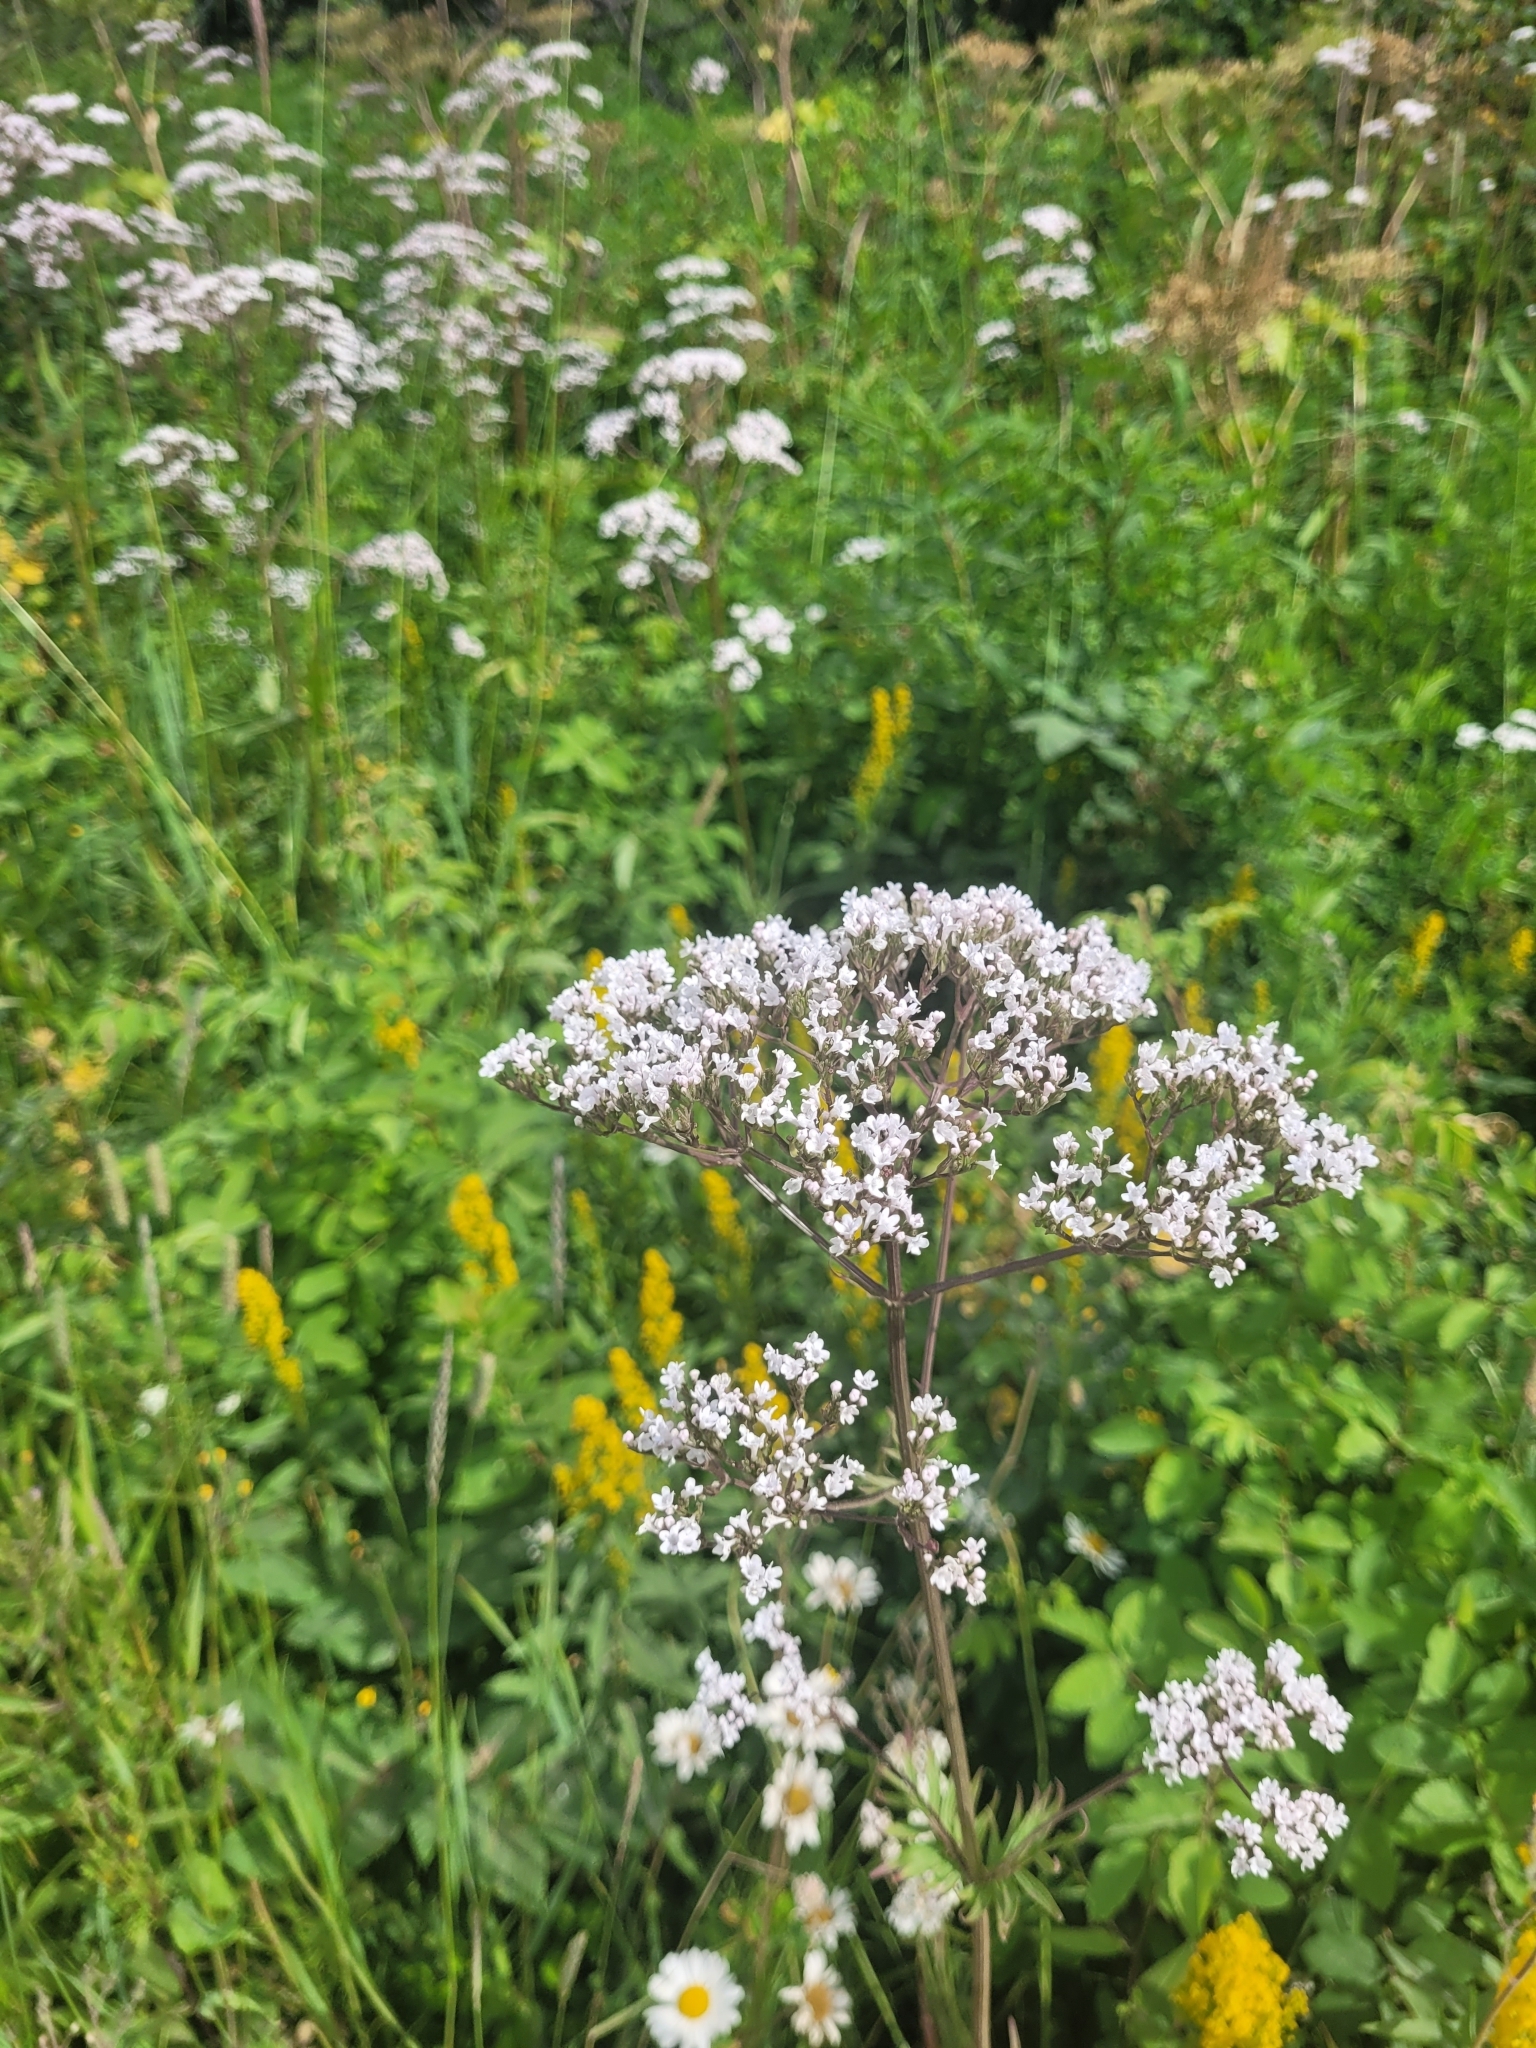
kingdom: Plantae
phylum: Tracheophyta
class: Magnoliopsida
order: Dipsacales
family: Caprifoliaceae
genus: Valeriana
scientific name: Valeriana officinalis
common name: Common valerian
